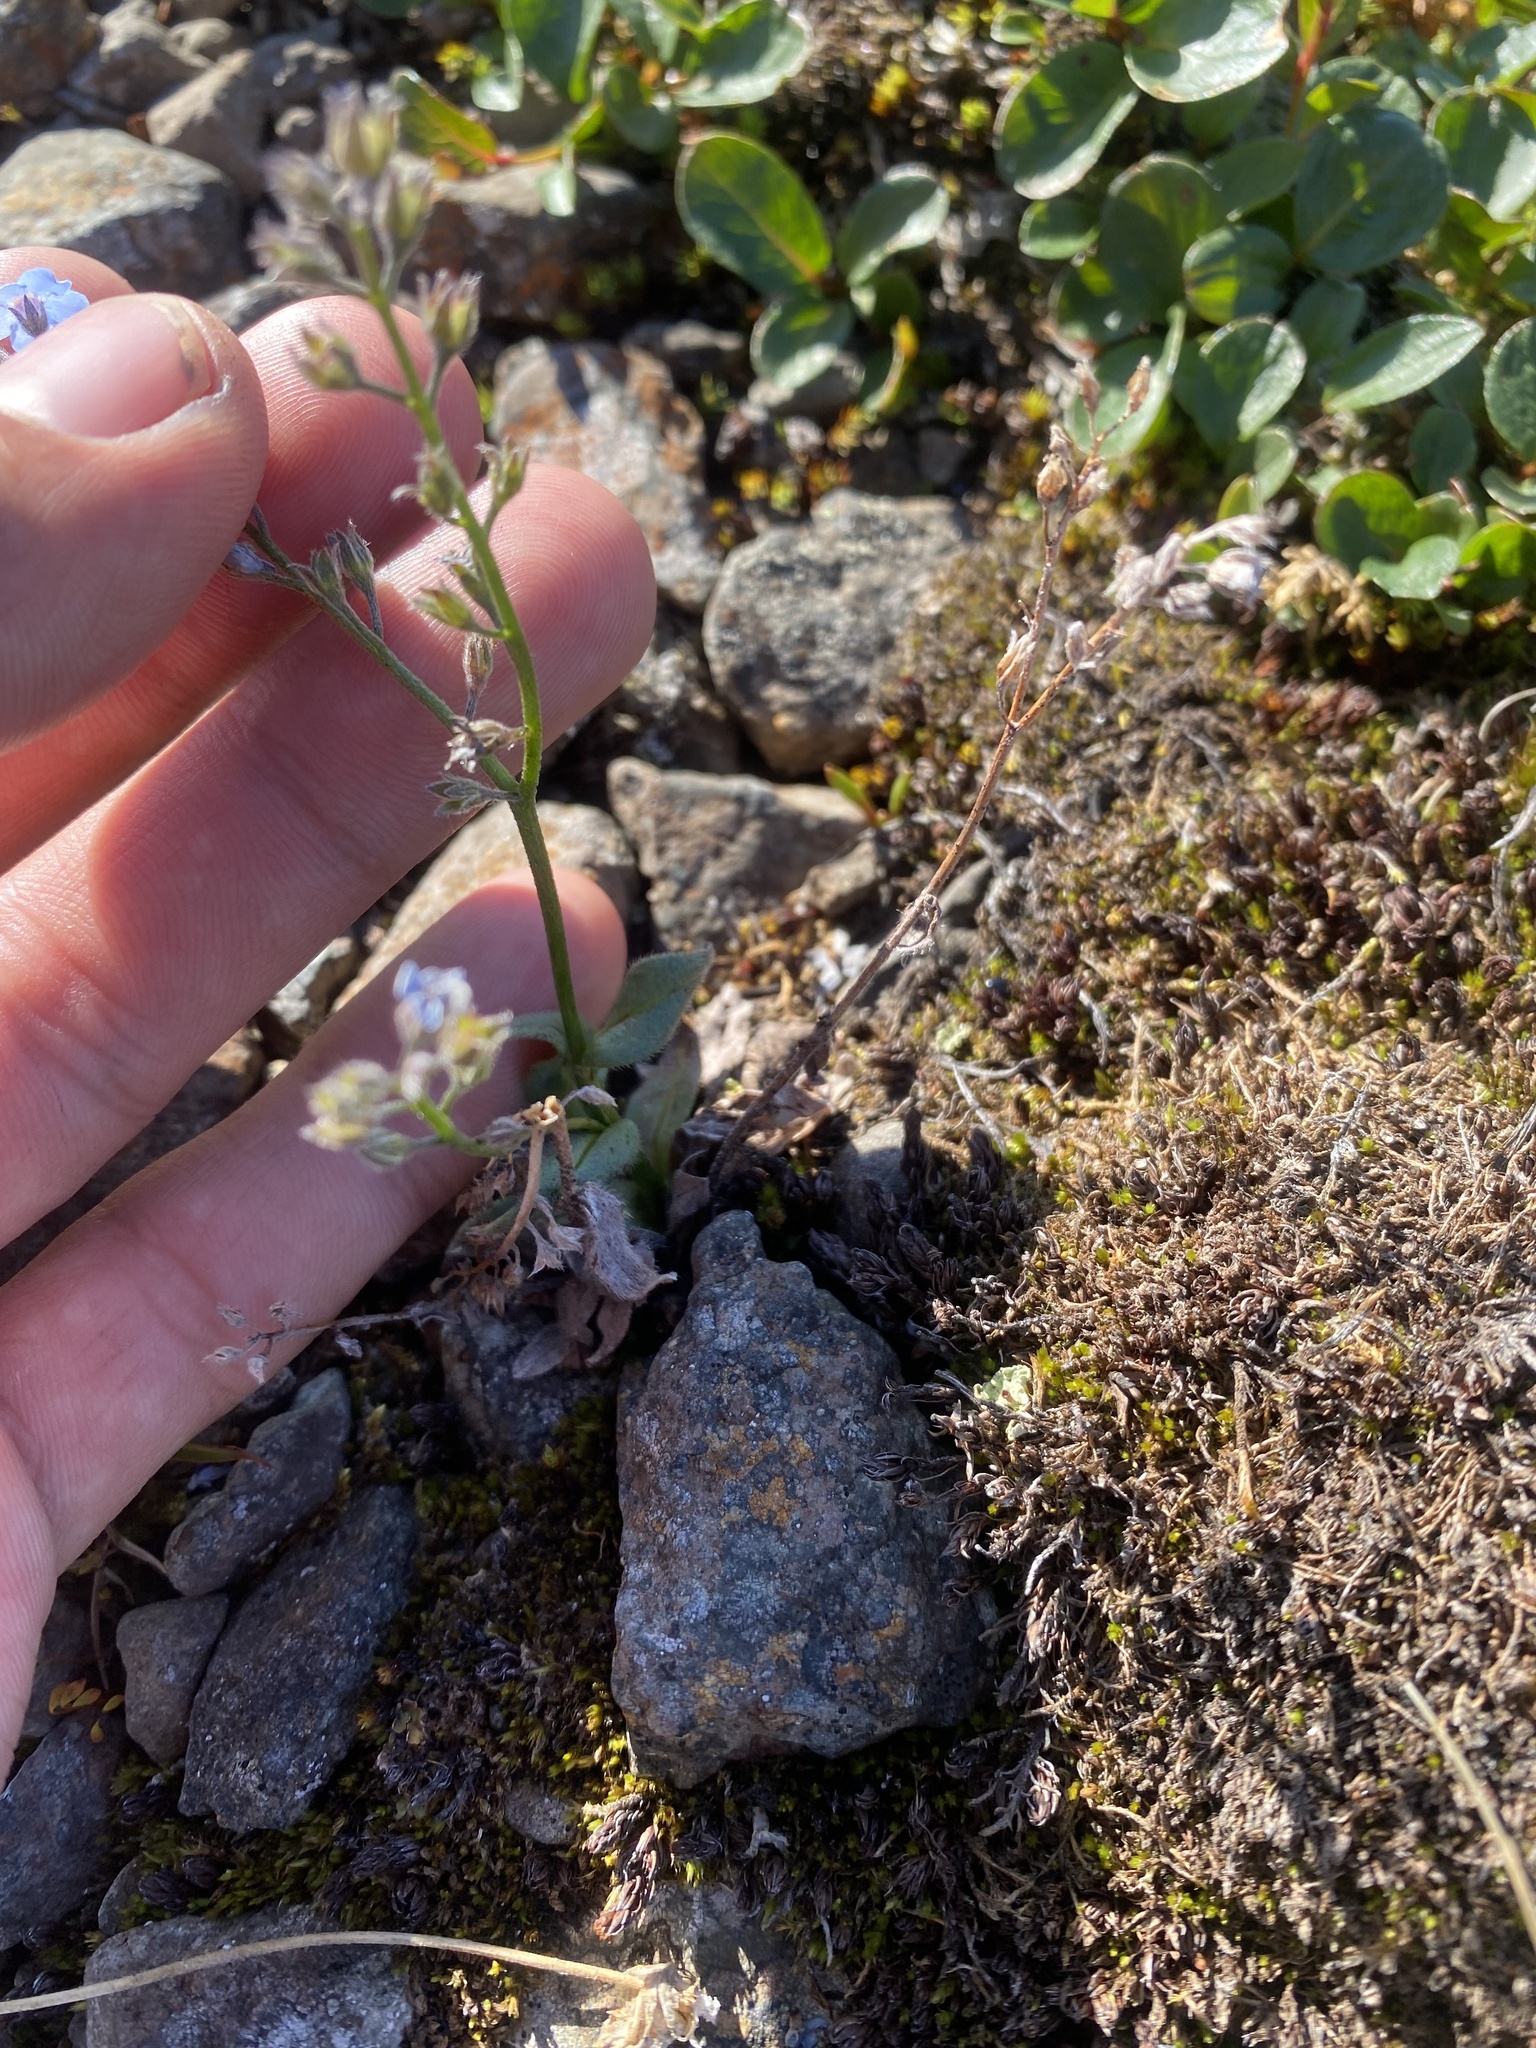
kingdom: Plantae
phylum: Tracheophyta
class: Magnoliopsida
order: Boraginales
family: Boraginaceae
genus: Myosotis
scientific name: Myosotis asiatica
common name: Asian forget-me-not
